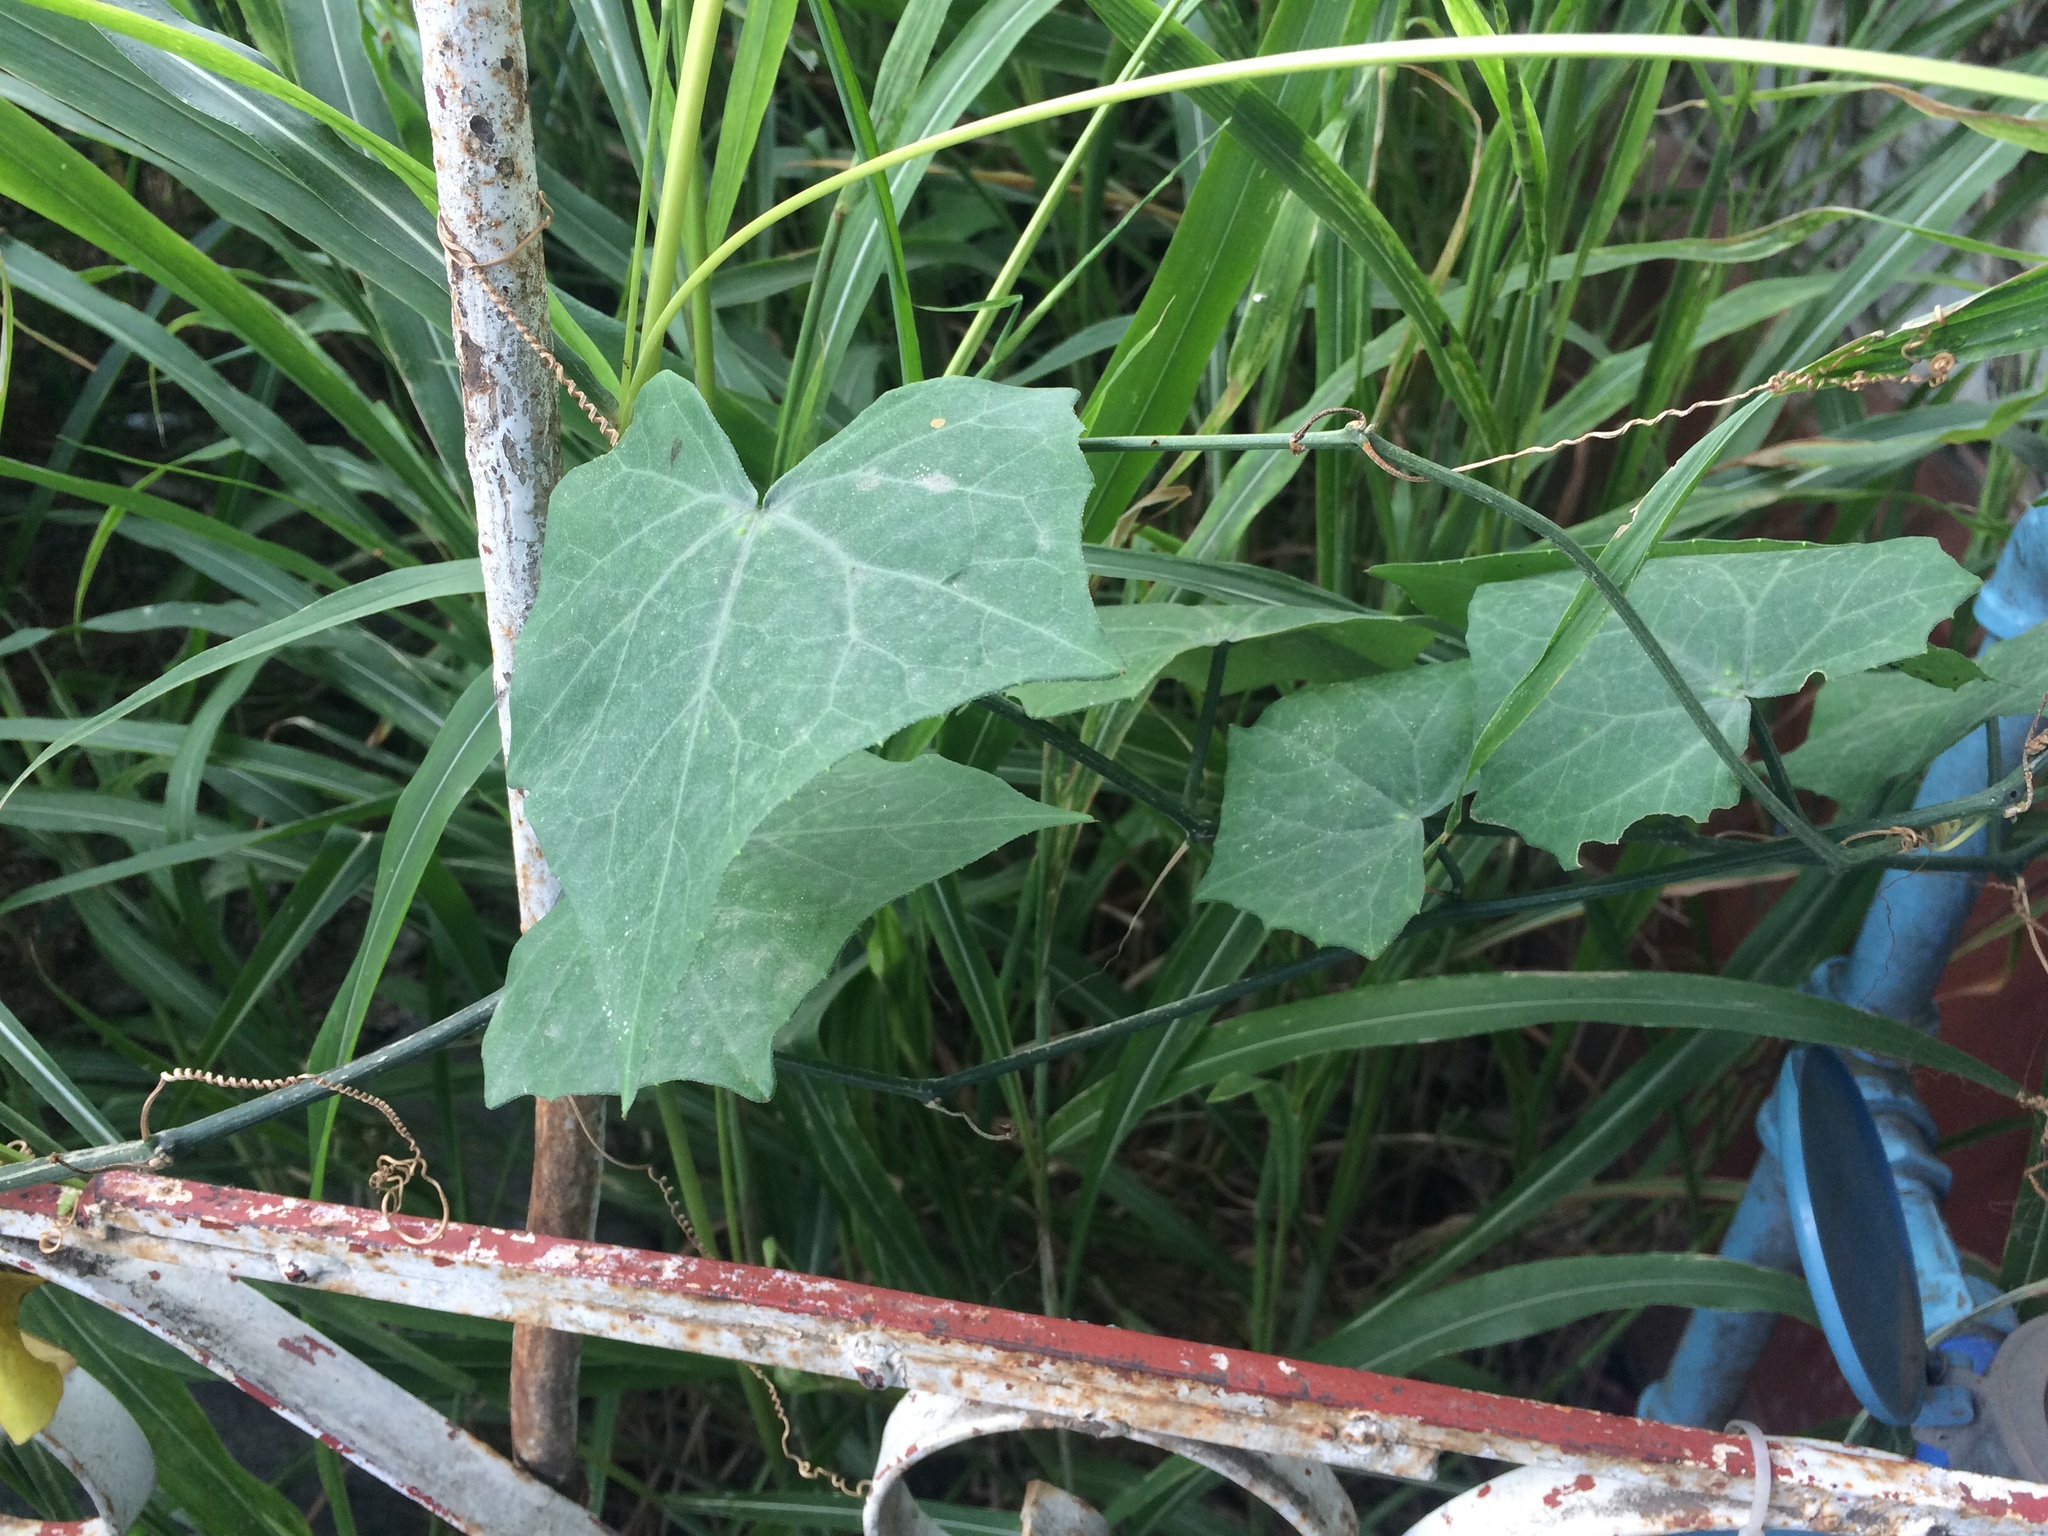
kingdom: Plantae
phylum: Tracheophyta
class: Magnoliopsida
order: Cucurbitales
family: Cucurbitaceae
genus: Coccinia
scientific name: Coccinia grandis
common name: Ivy gourd
